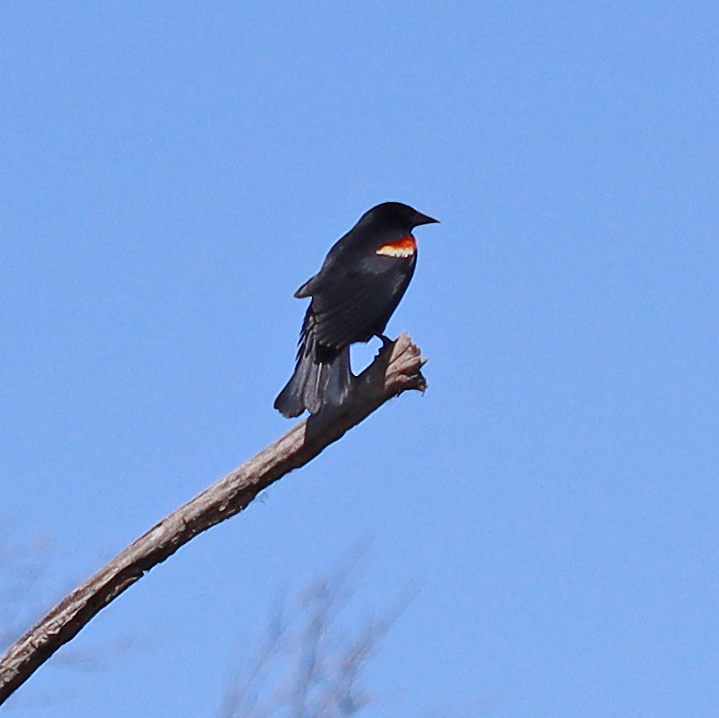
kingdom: Animalia
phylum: Chordata
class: Aves
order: Passeriformes
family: Icteridae
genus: Agelaius
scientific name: Agelaius phoeniceus
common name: Red-winged blackbird
